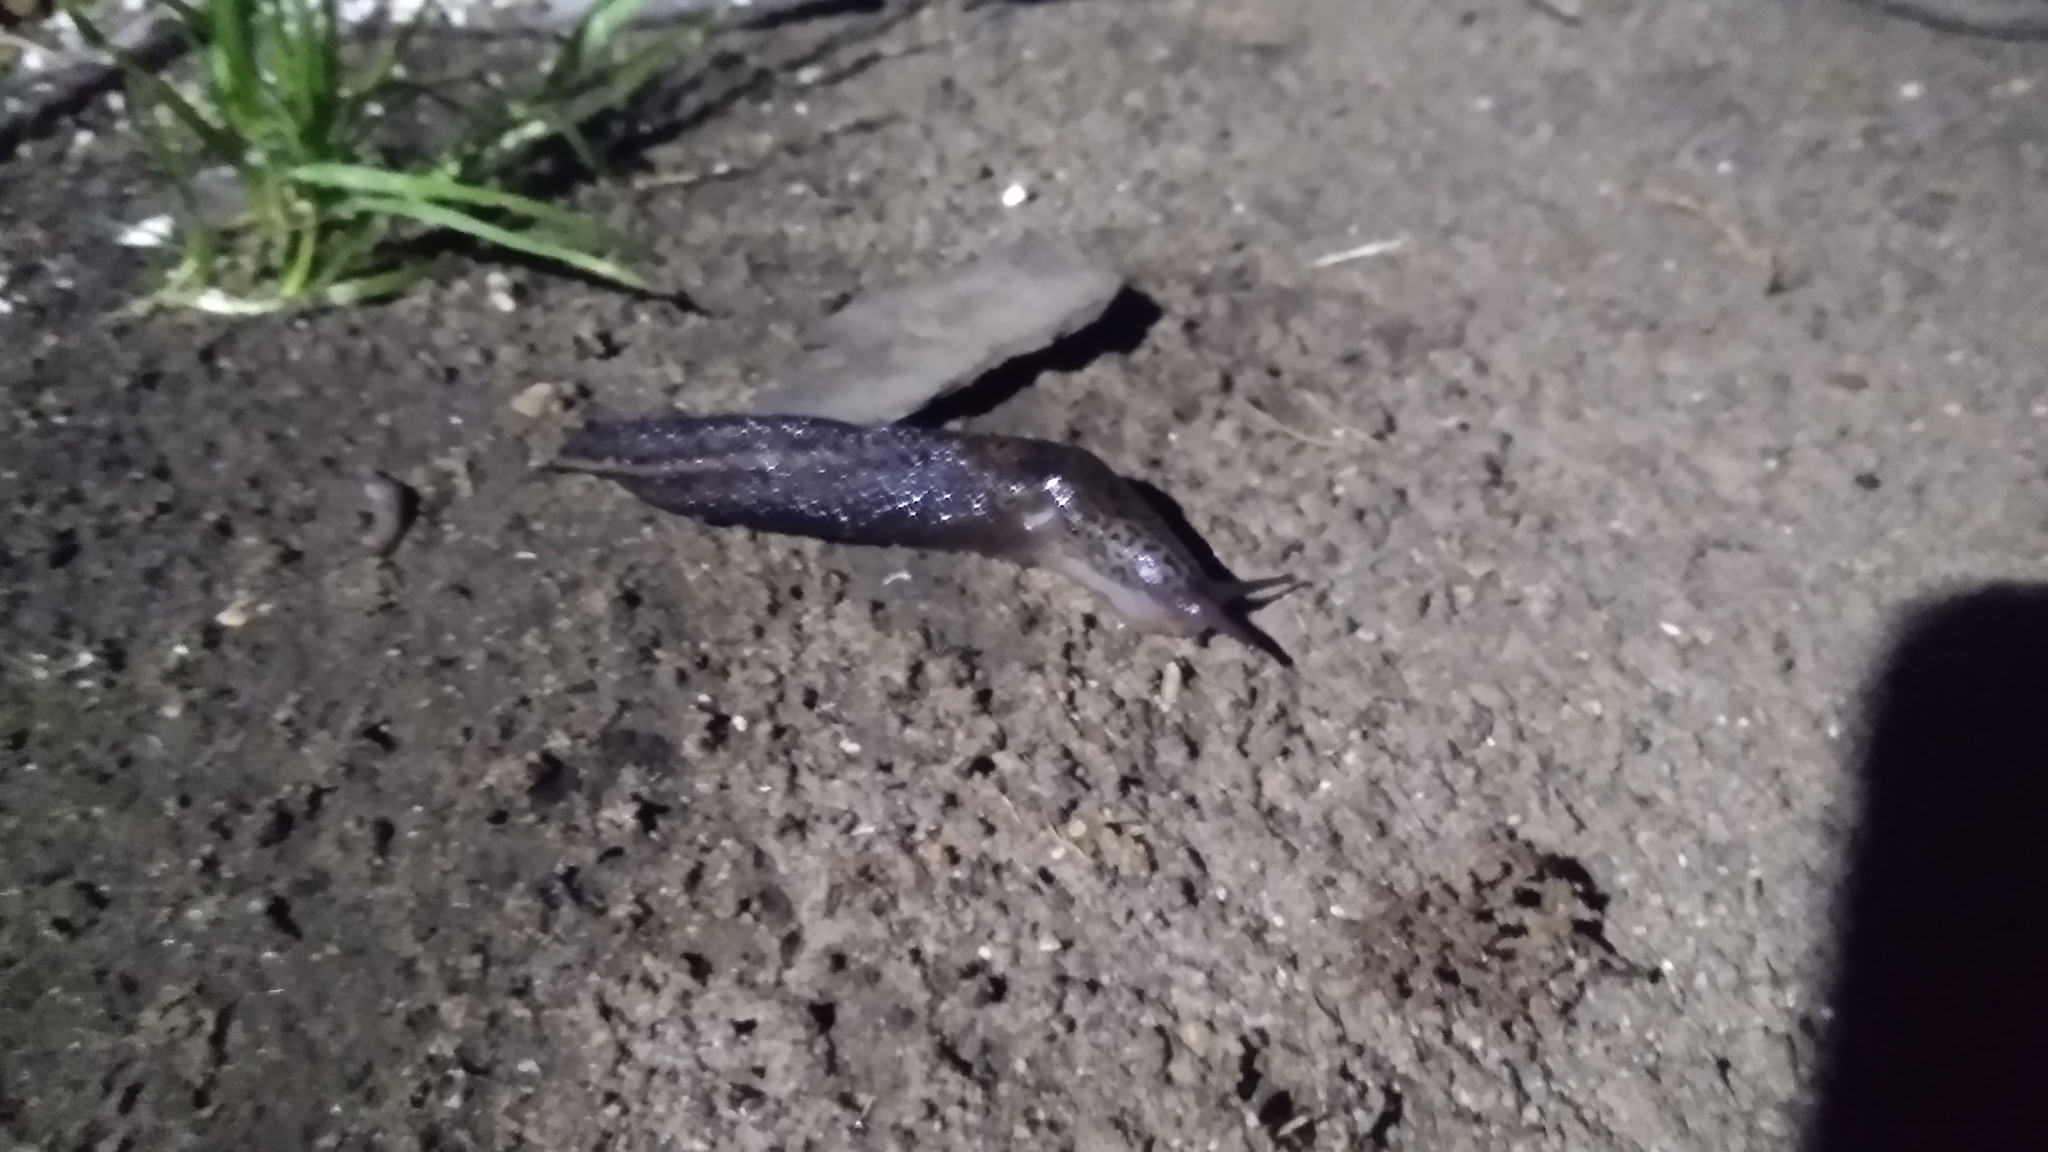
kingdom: Animalia
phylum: Mollusca
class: Gastropoda
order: Stylommatophora
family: Limacidae
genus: Limax
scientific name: Limax maximus
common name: Great grey slug
